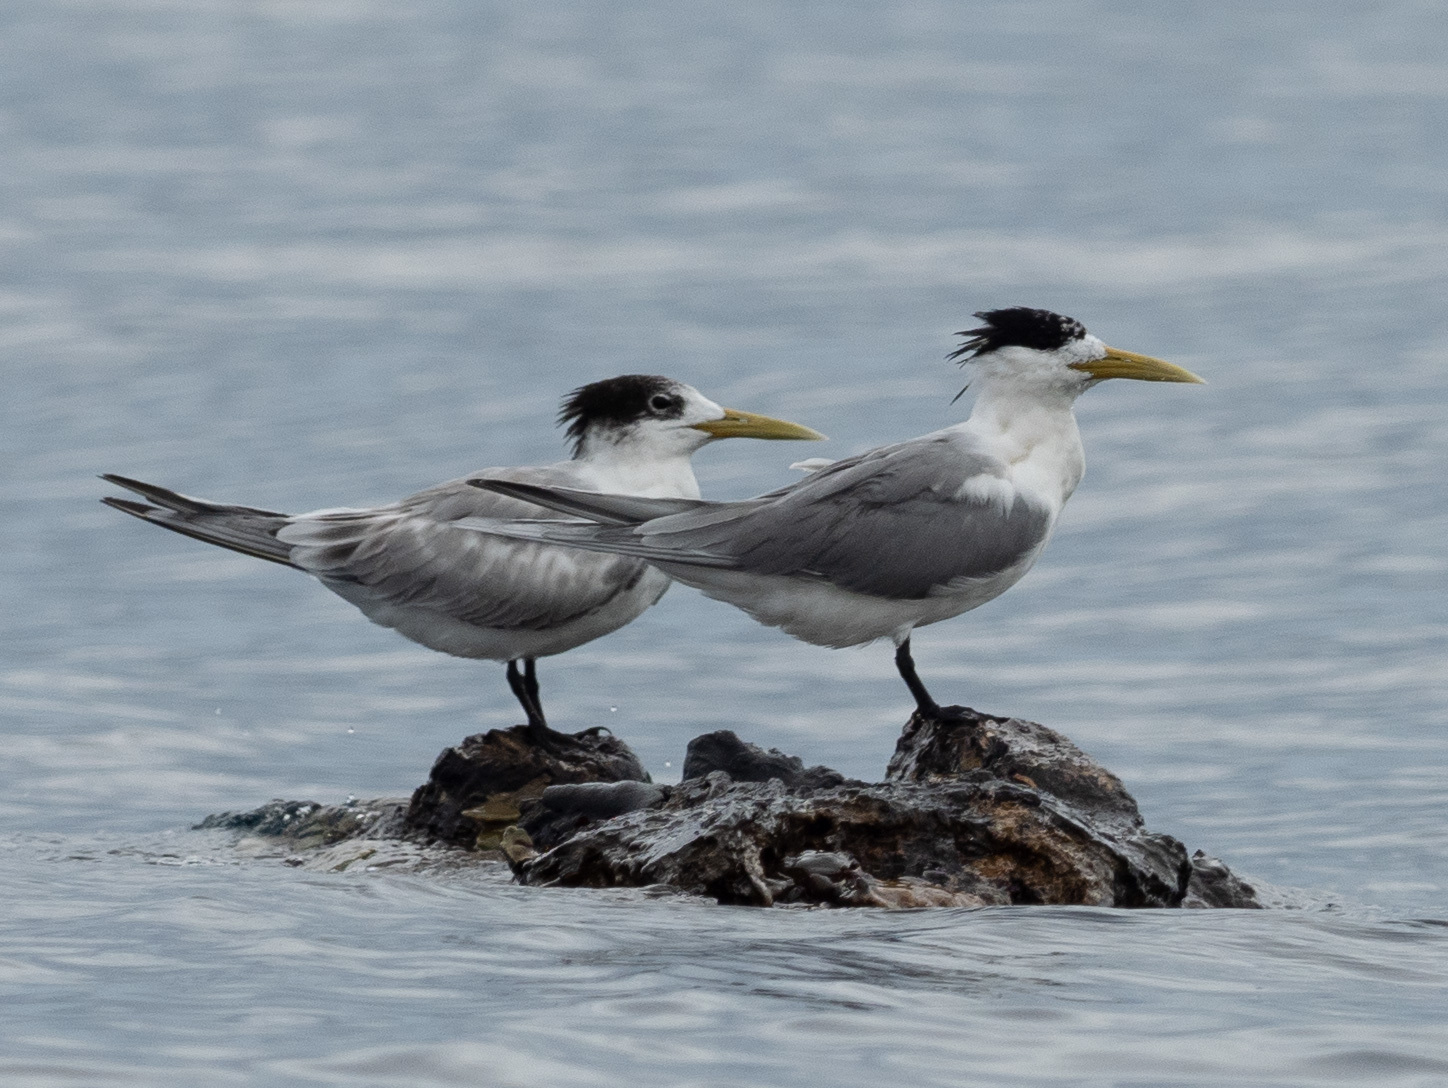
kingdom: Animalia
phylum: Chordata
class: Aves
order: Charadriiformes
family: Laridae
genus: Thalasseus
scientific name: Thalasseus bergii
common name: Greater crested tern
